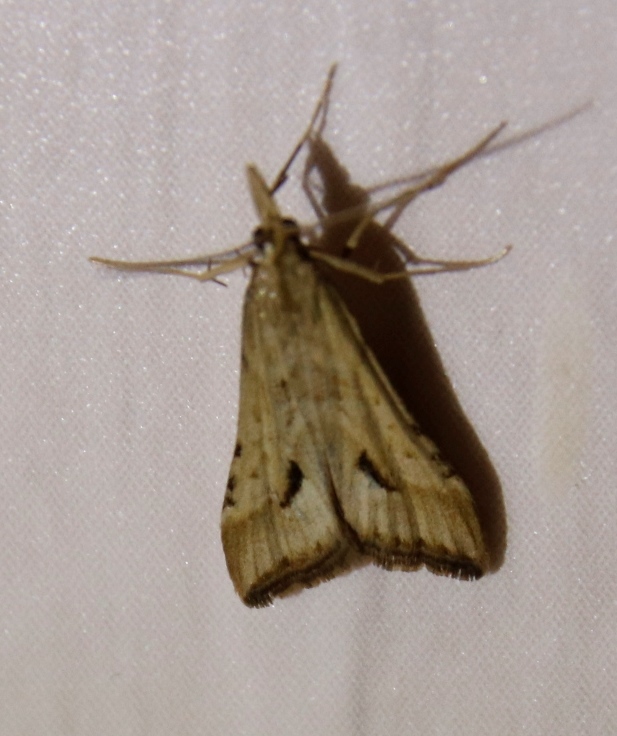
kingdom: Animalia
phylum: Arthropoda
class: Insecta
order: Lepidoptera
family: Crambidae
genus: Diasemia
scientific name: Diasemia monostigma
